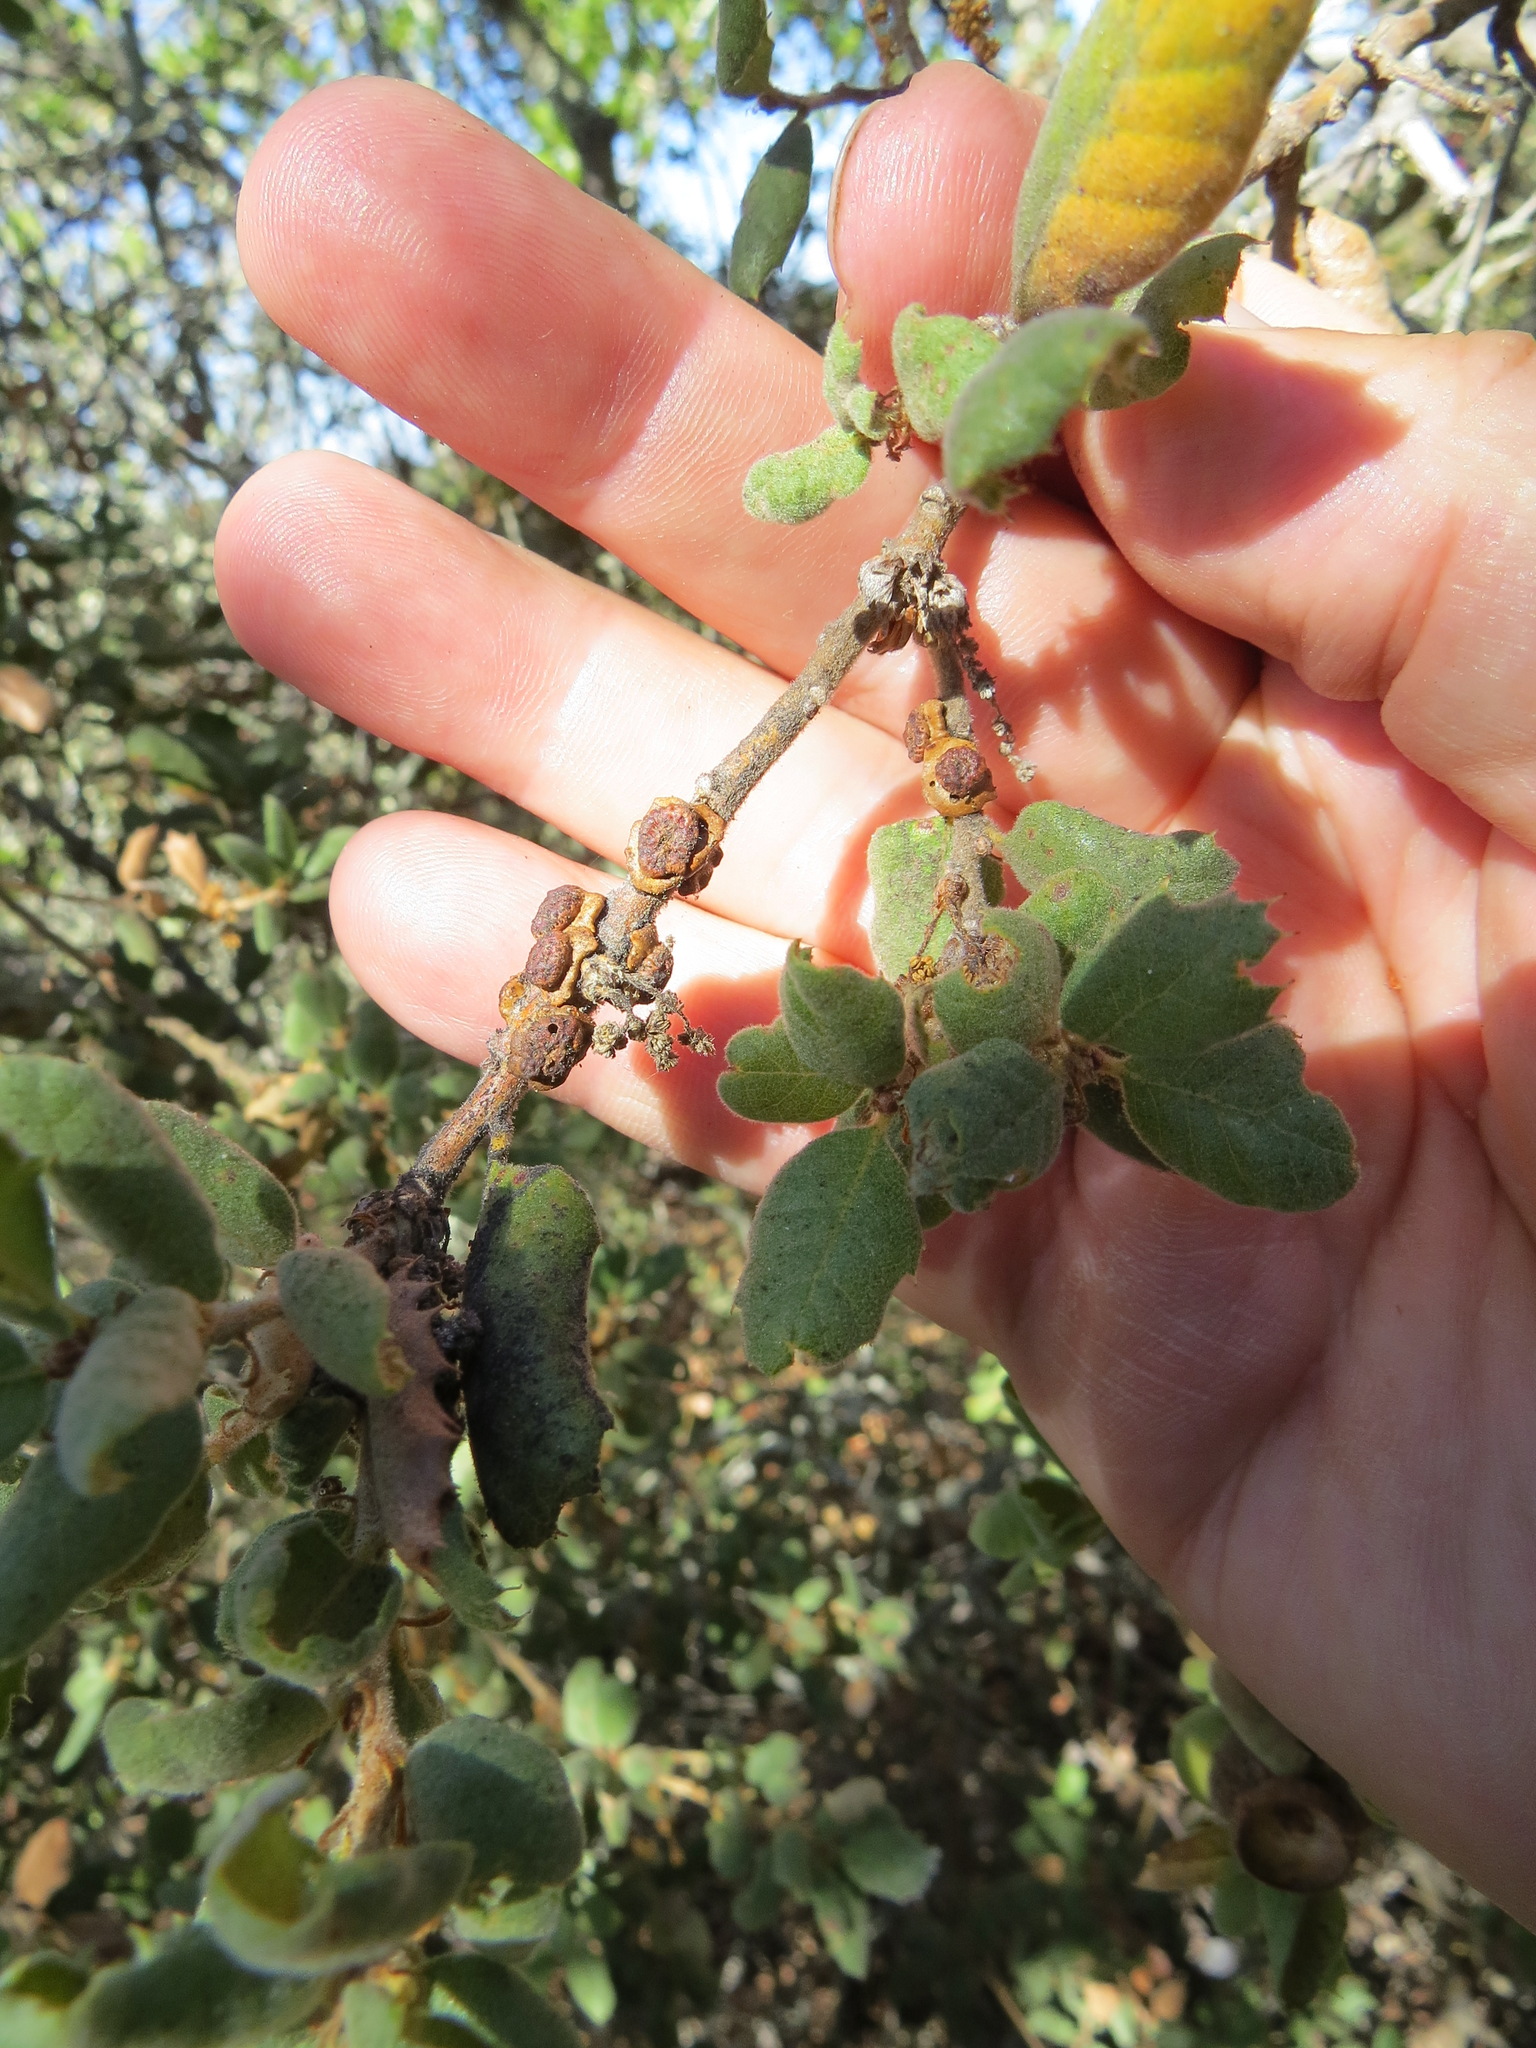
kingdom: Animalia
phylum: Arthropoda
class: Insecta
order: Hymenoptera
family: Cynipidae
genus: Disholcaspis
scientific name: Disholcaspis prehensa
